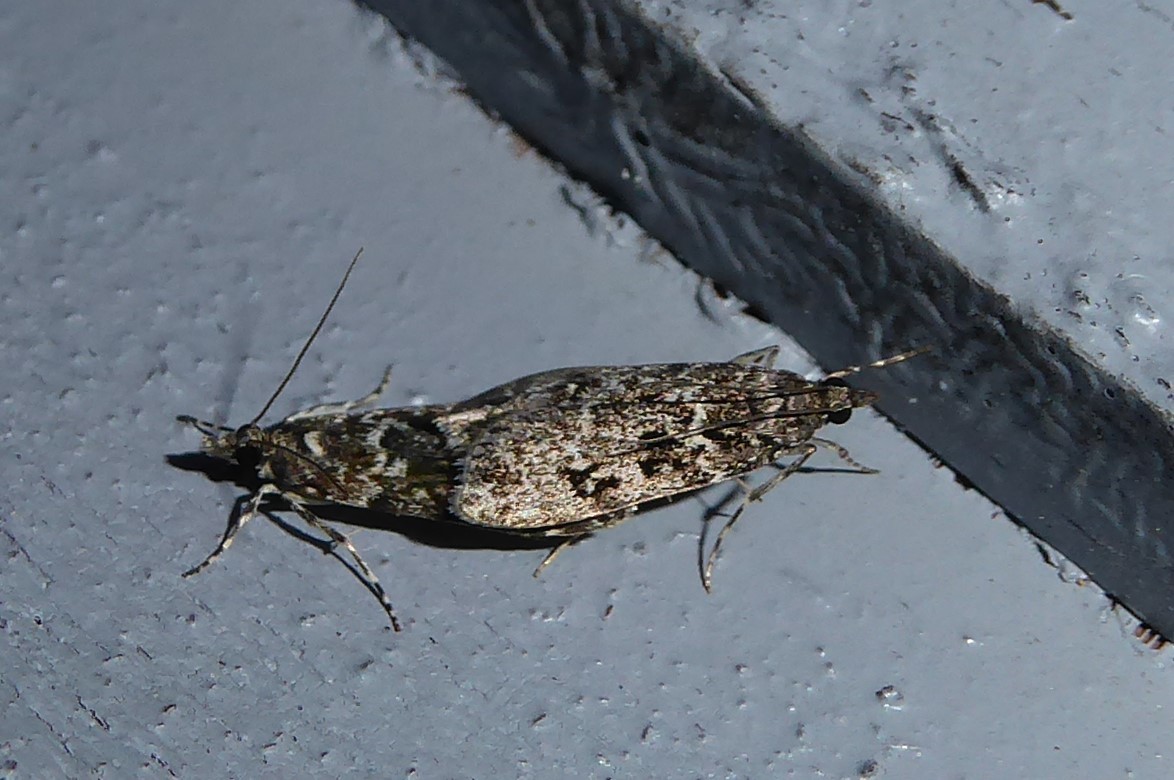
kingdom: Animalia
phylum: Arthropoda
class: Insecta
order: Lepidoptera
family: Crambidae
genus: Eudonia
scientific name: Eudonia philerga
